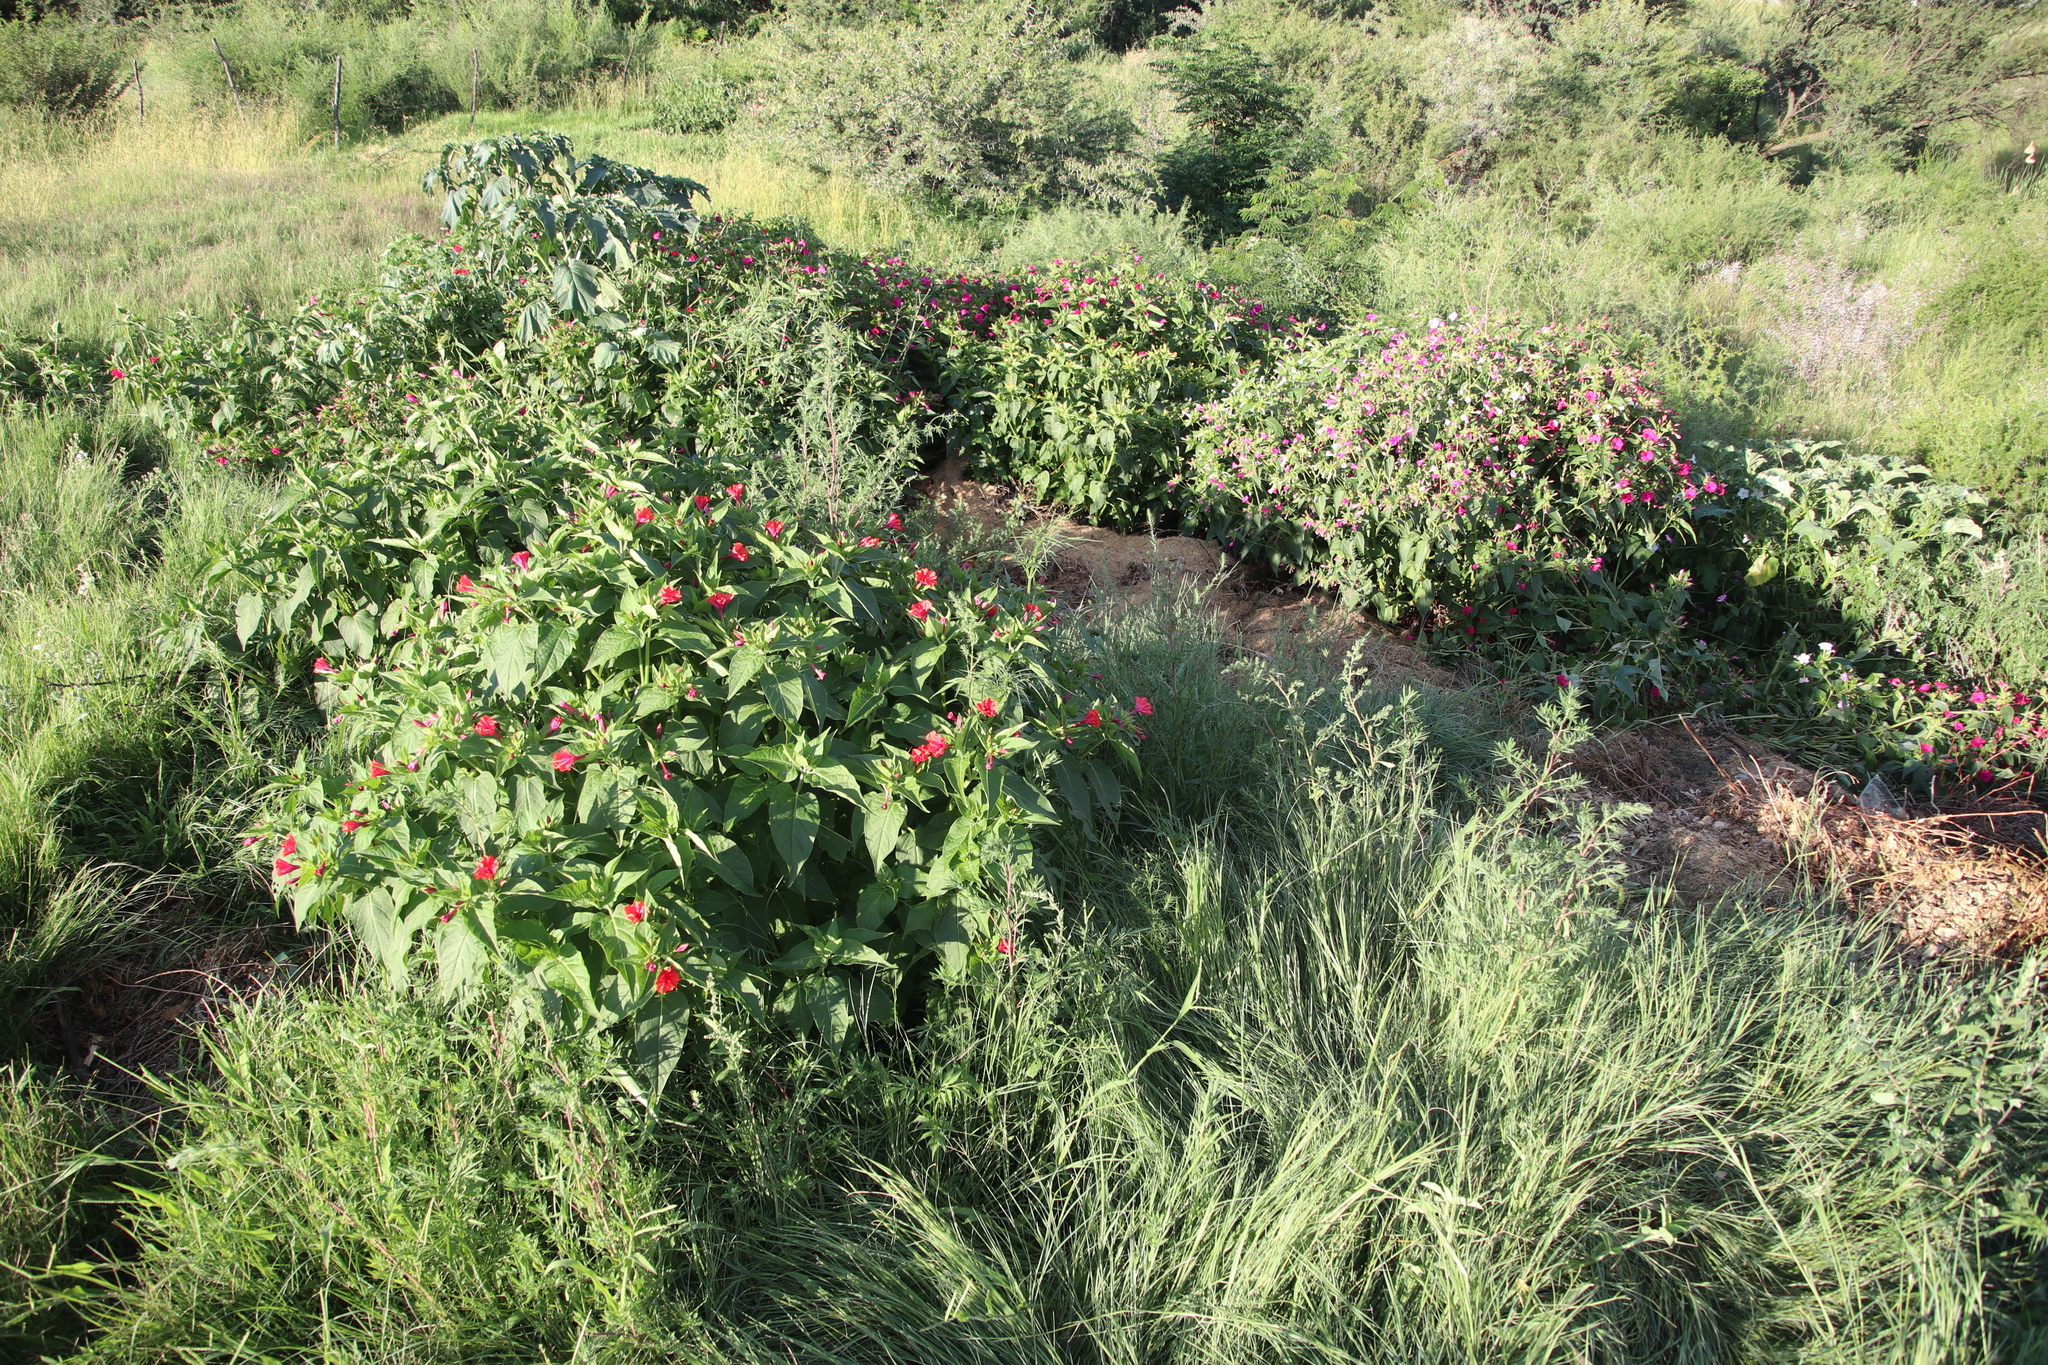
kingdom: Plantae
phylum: Tracheophyta
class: Magnoliopsida
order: Caryophyllales
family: Nyctaginaceae
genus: Mirabilis
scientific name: Mirabilis jalapa
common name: Marvel-of-peru
